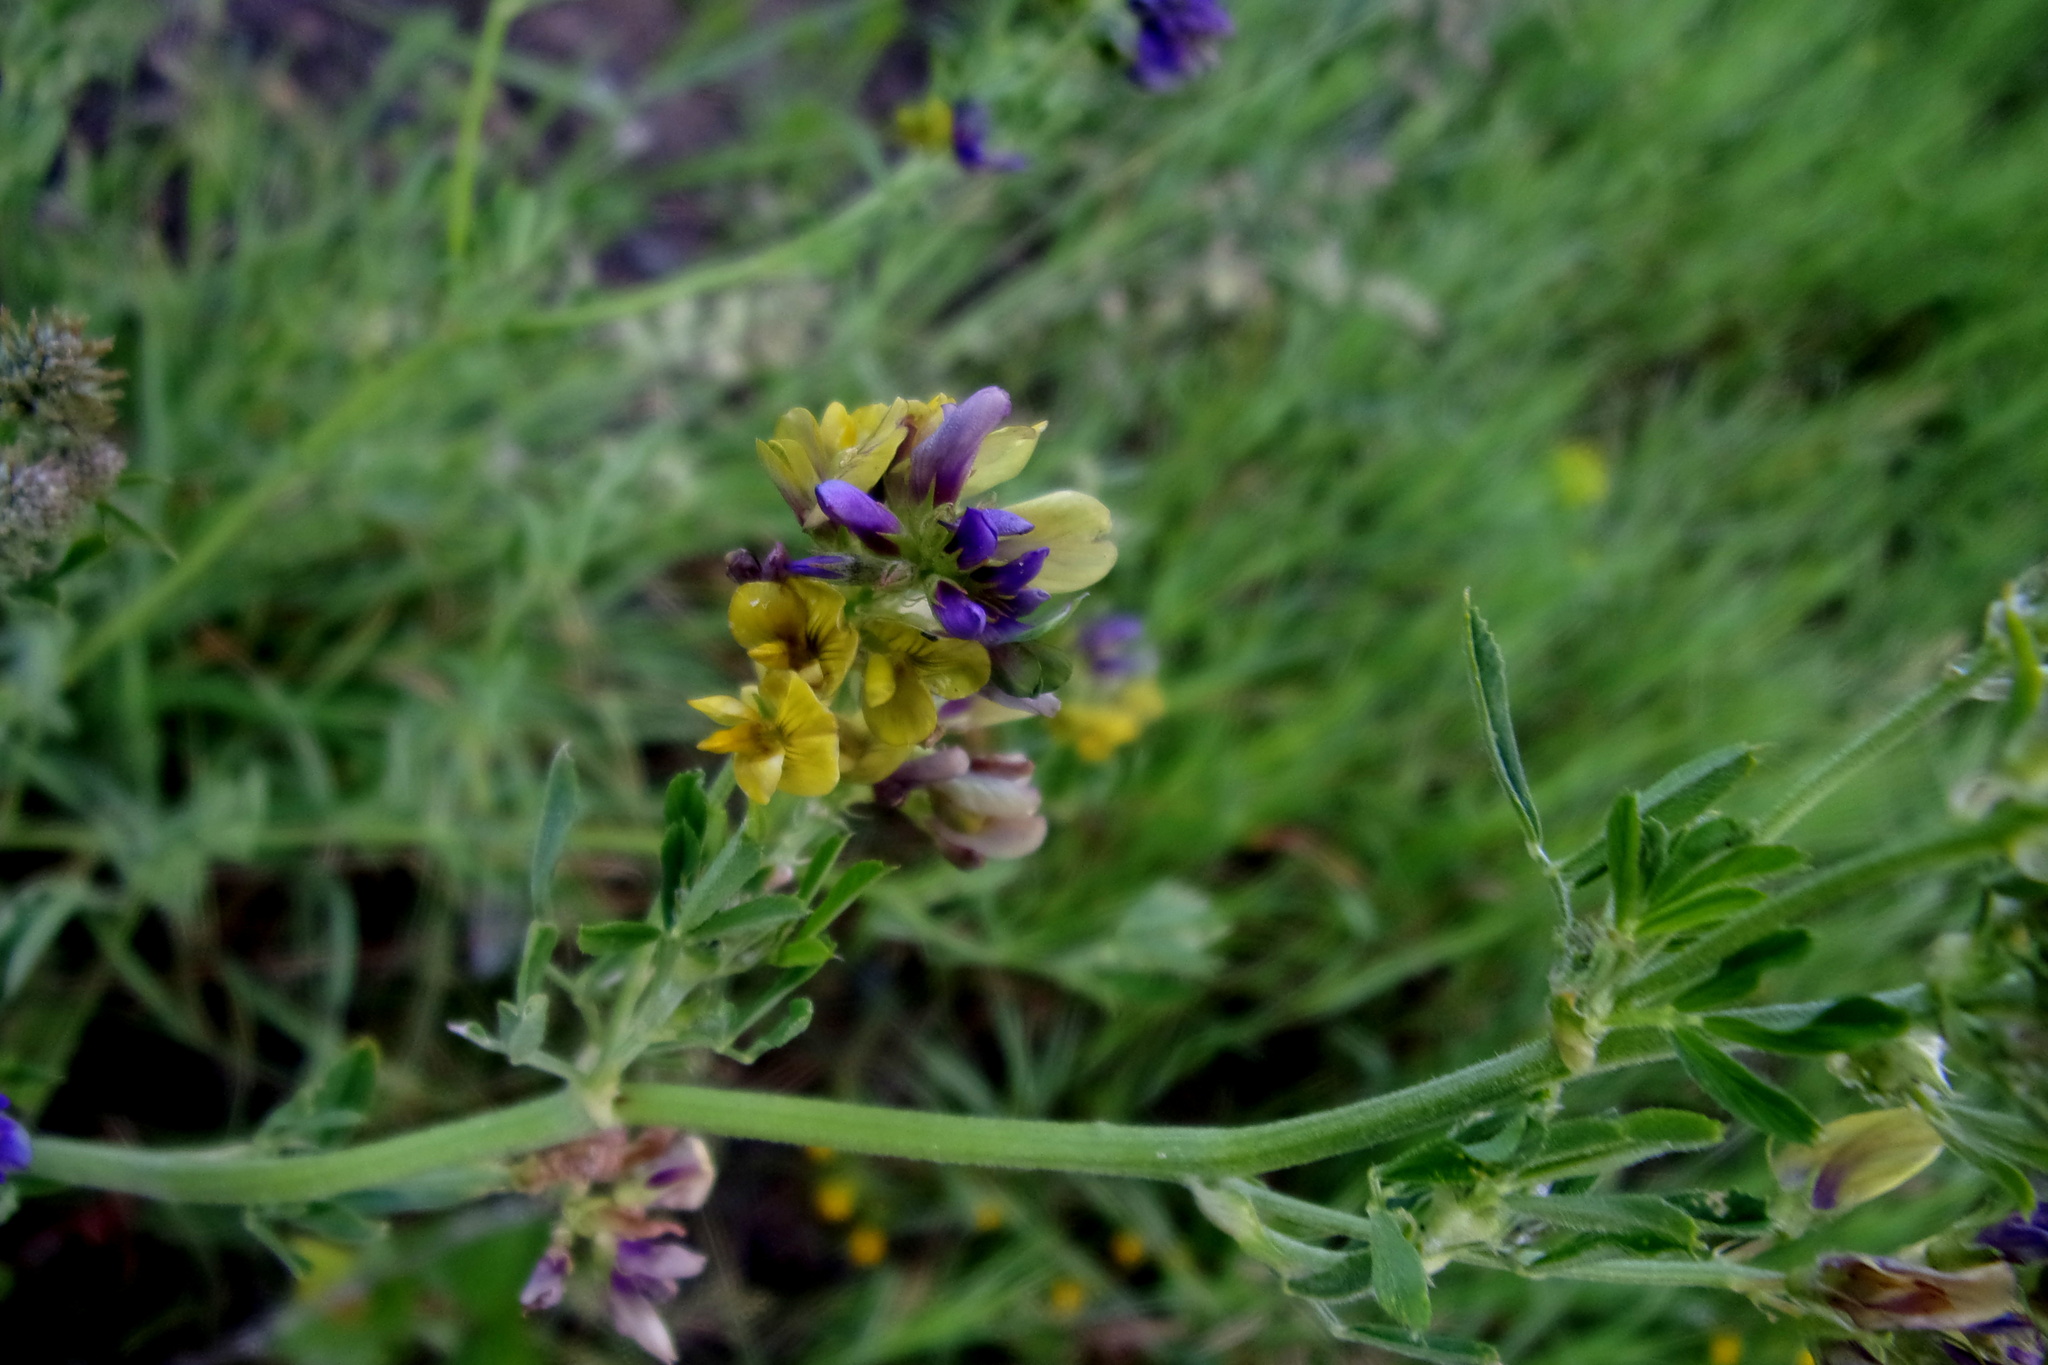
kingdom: Plantae
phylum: Tracheophyta
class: Magnoliopsida
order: Fabales
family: Fabaceae
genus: Medicago
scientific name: Medicago varia
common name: Sand lucerne
